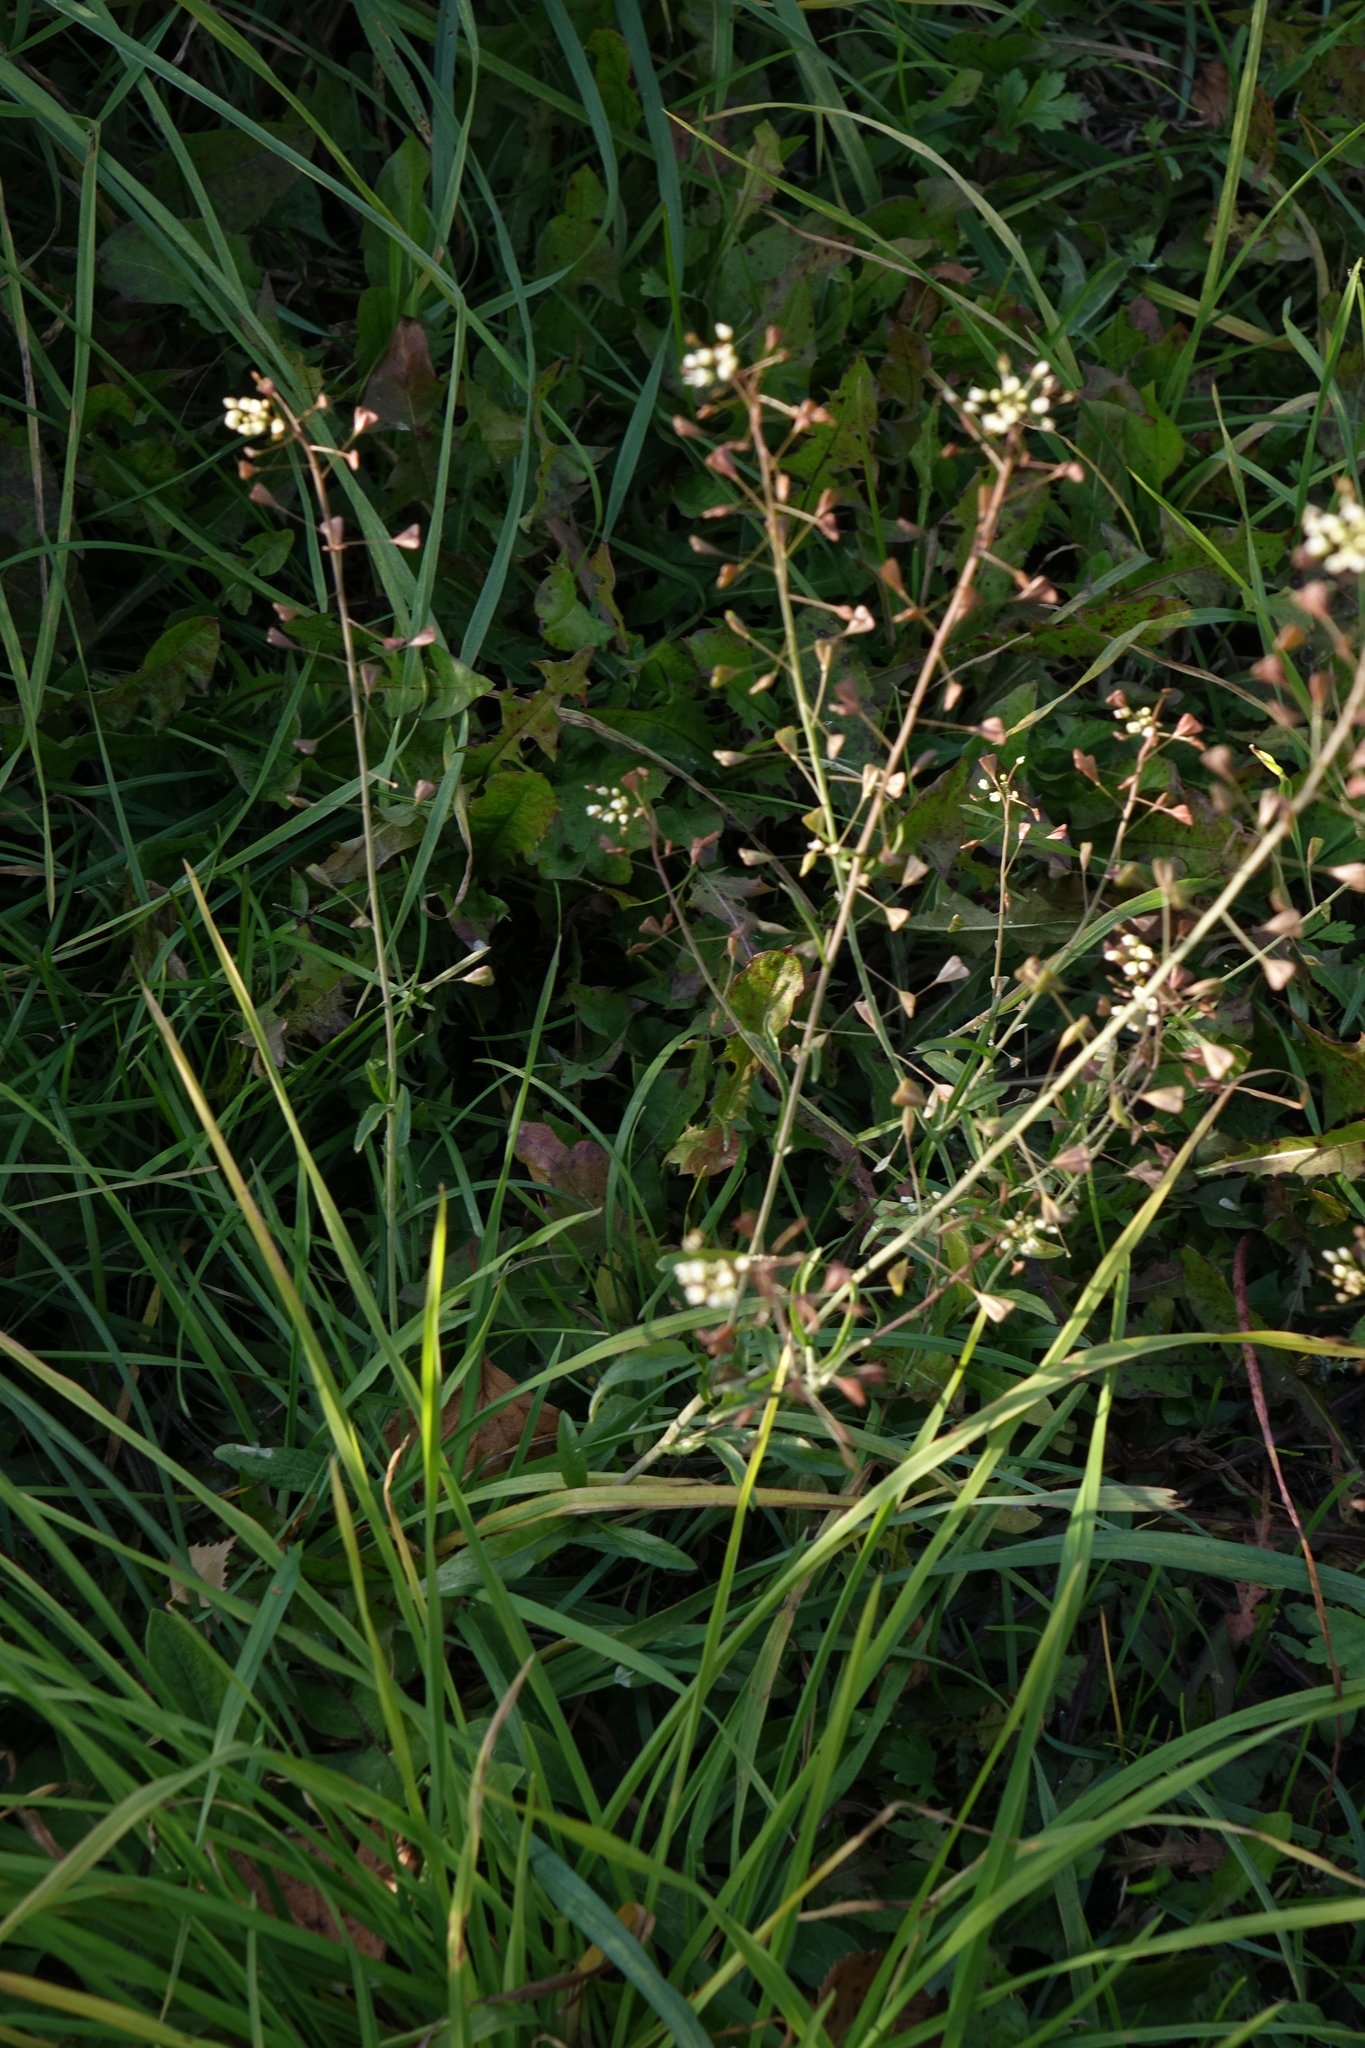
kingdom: Plantae
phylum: Tracheophyta
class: Magnoliopsida
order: Brassicales
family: Brassicaceae
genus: Capsella
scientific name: Capsella bursa-pastoris
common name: Shepherd's purse
